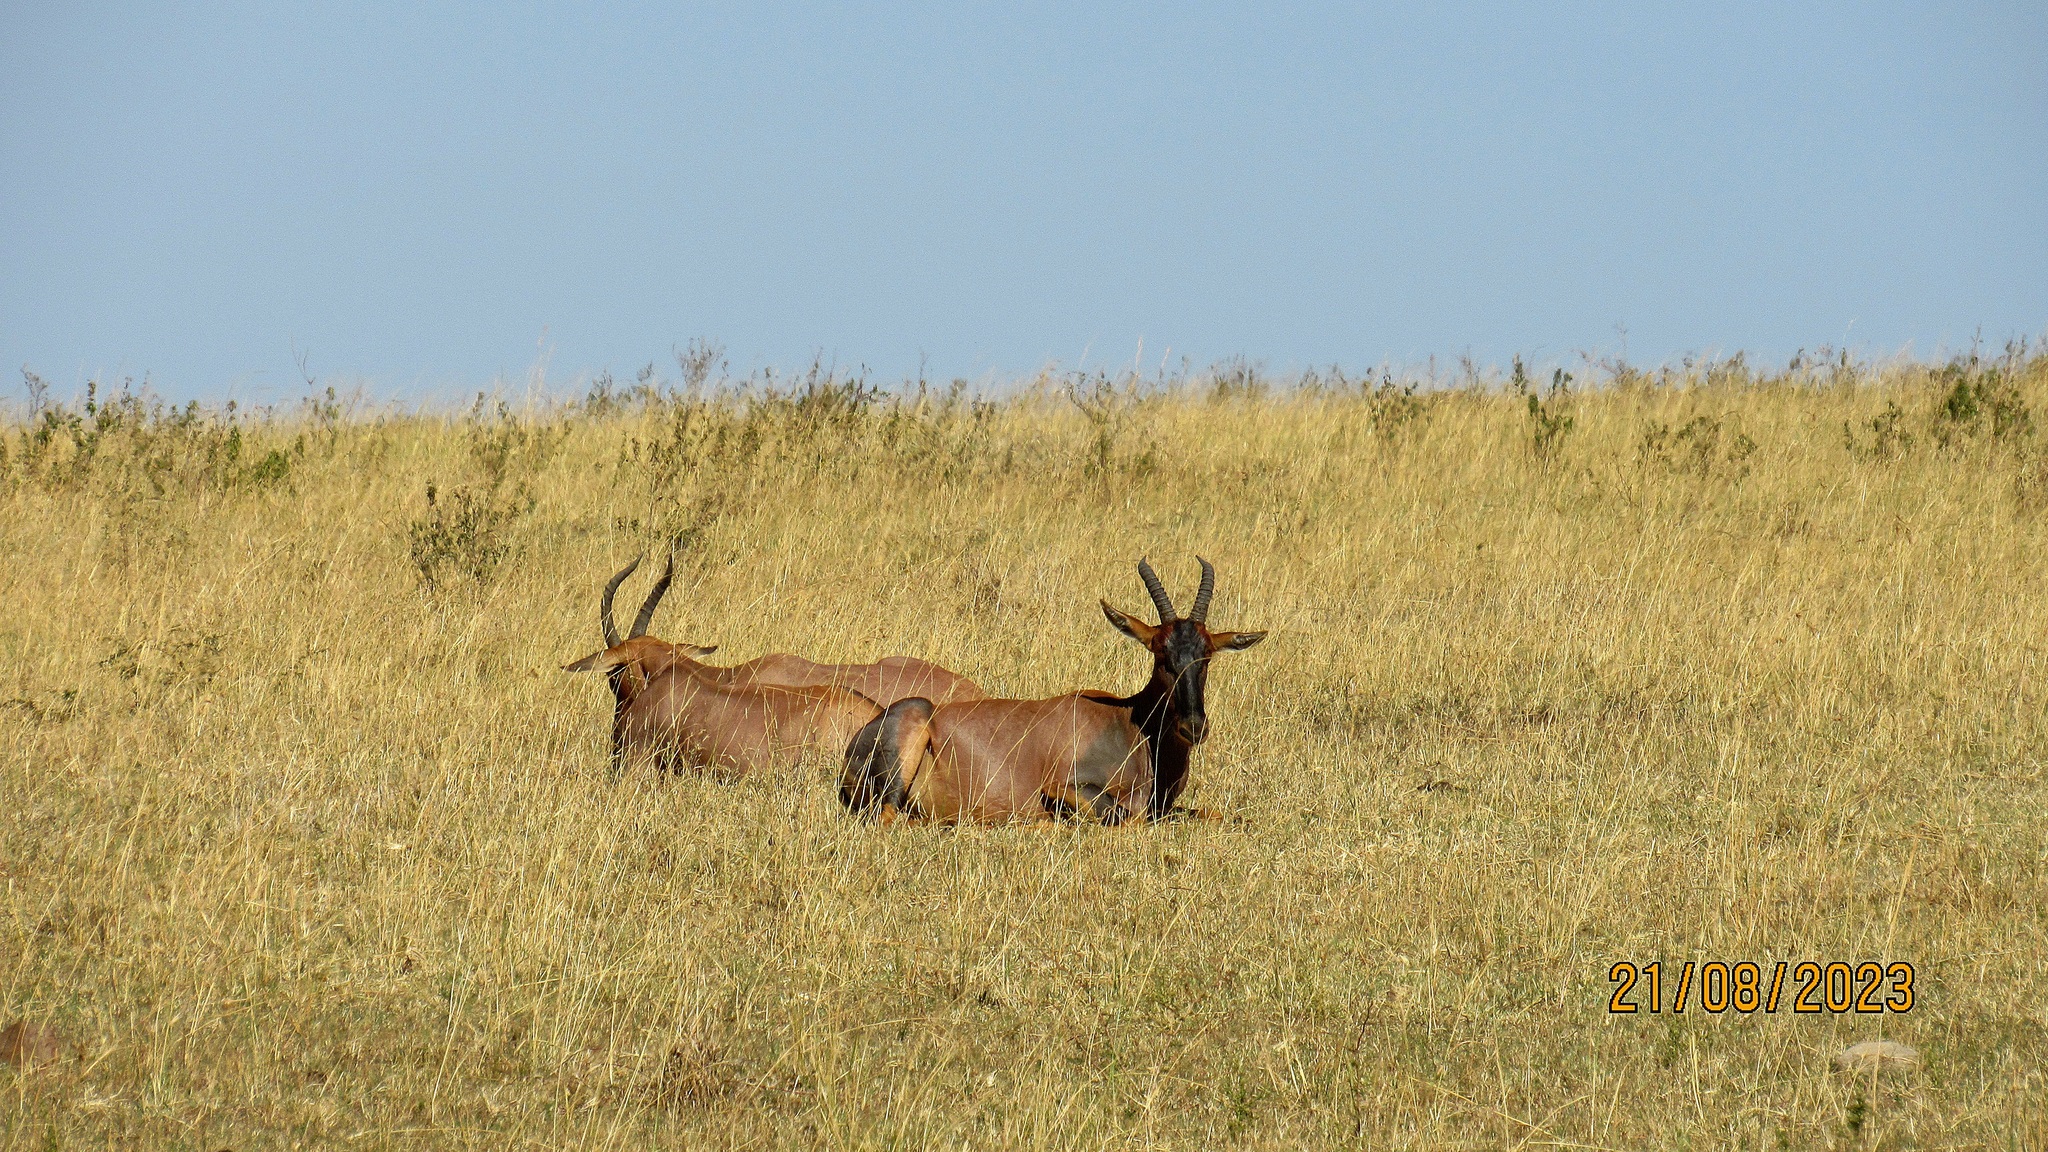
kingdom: Animalia
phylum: Chordata
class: Mammalia
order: Artiodactyla
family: Bovidae
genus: Damaliscus
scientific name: Damaliscus korrigum
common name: Topi
